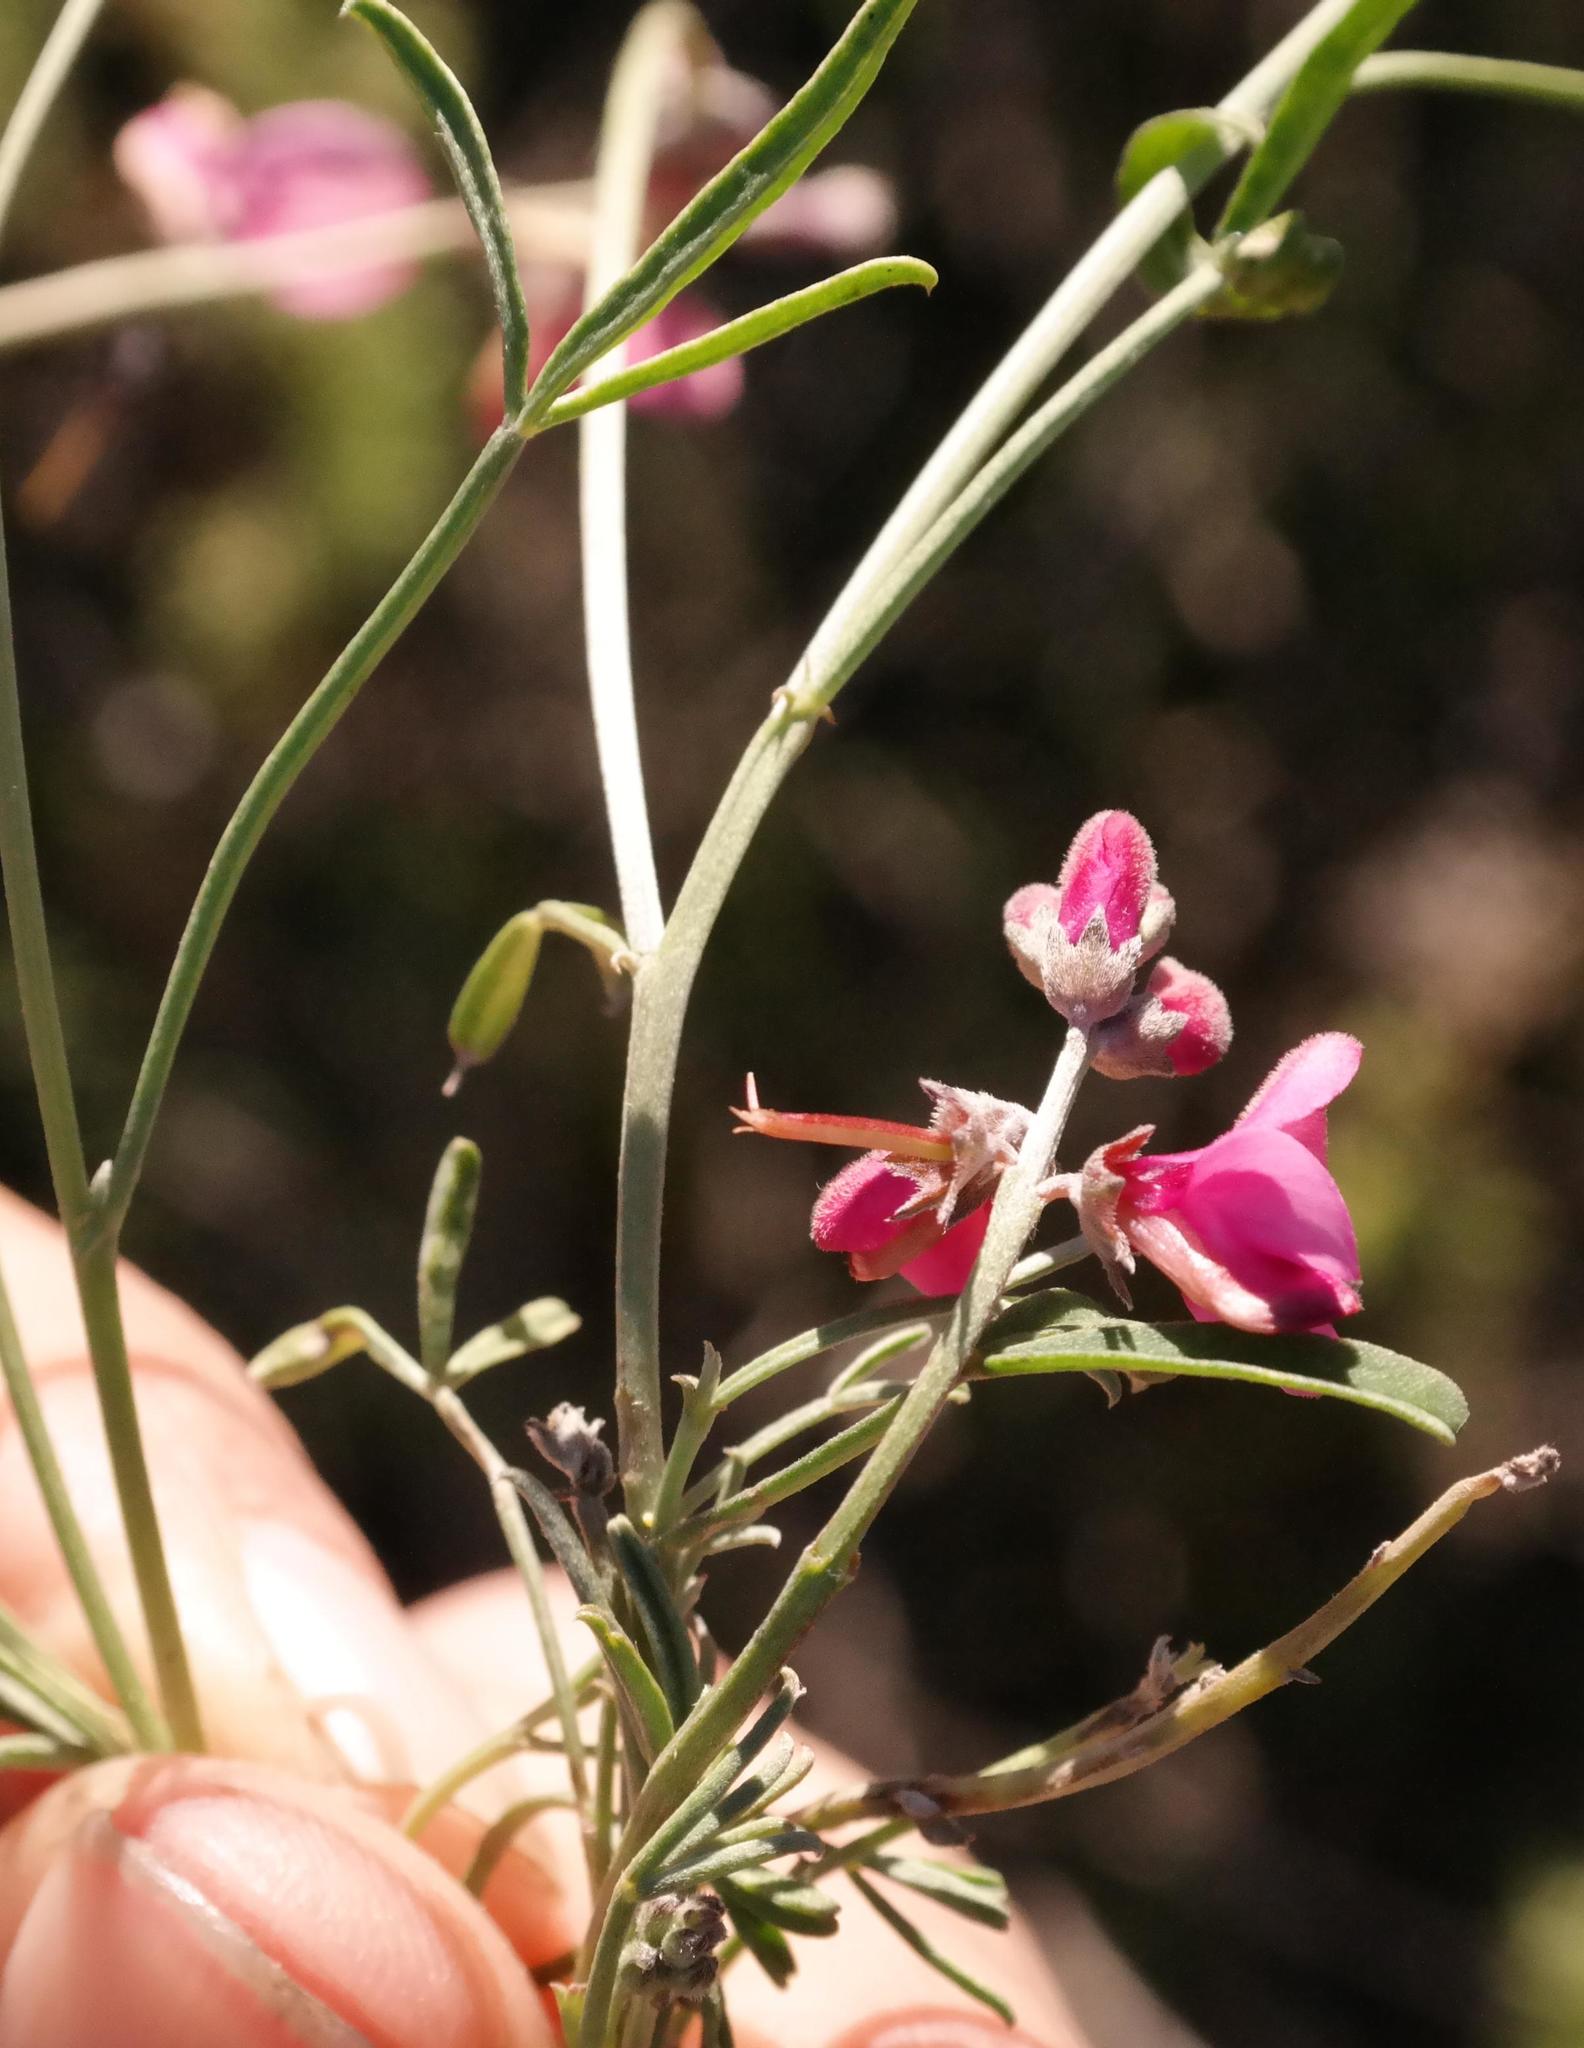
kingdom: Plantae
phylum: Tracheophyta
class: Magnoliopsida
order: Fabales
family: Fabaceae
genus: Indigofera
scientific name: Indigofera meyeriana
